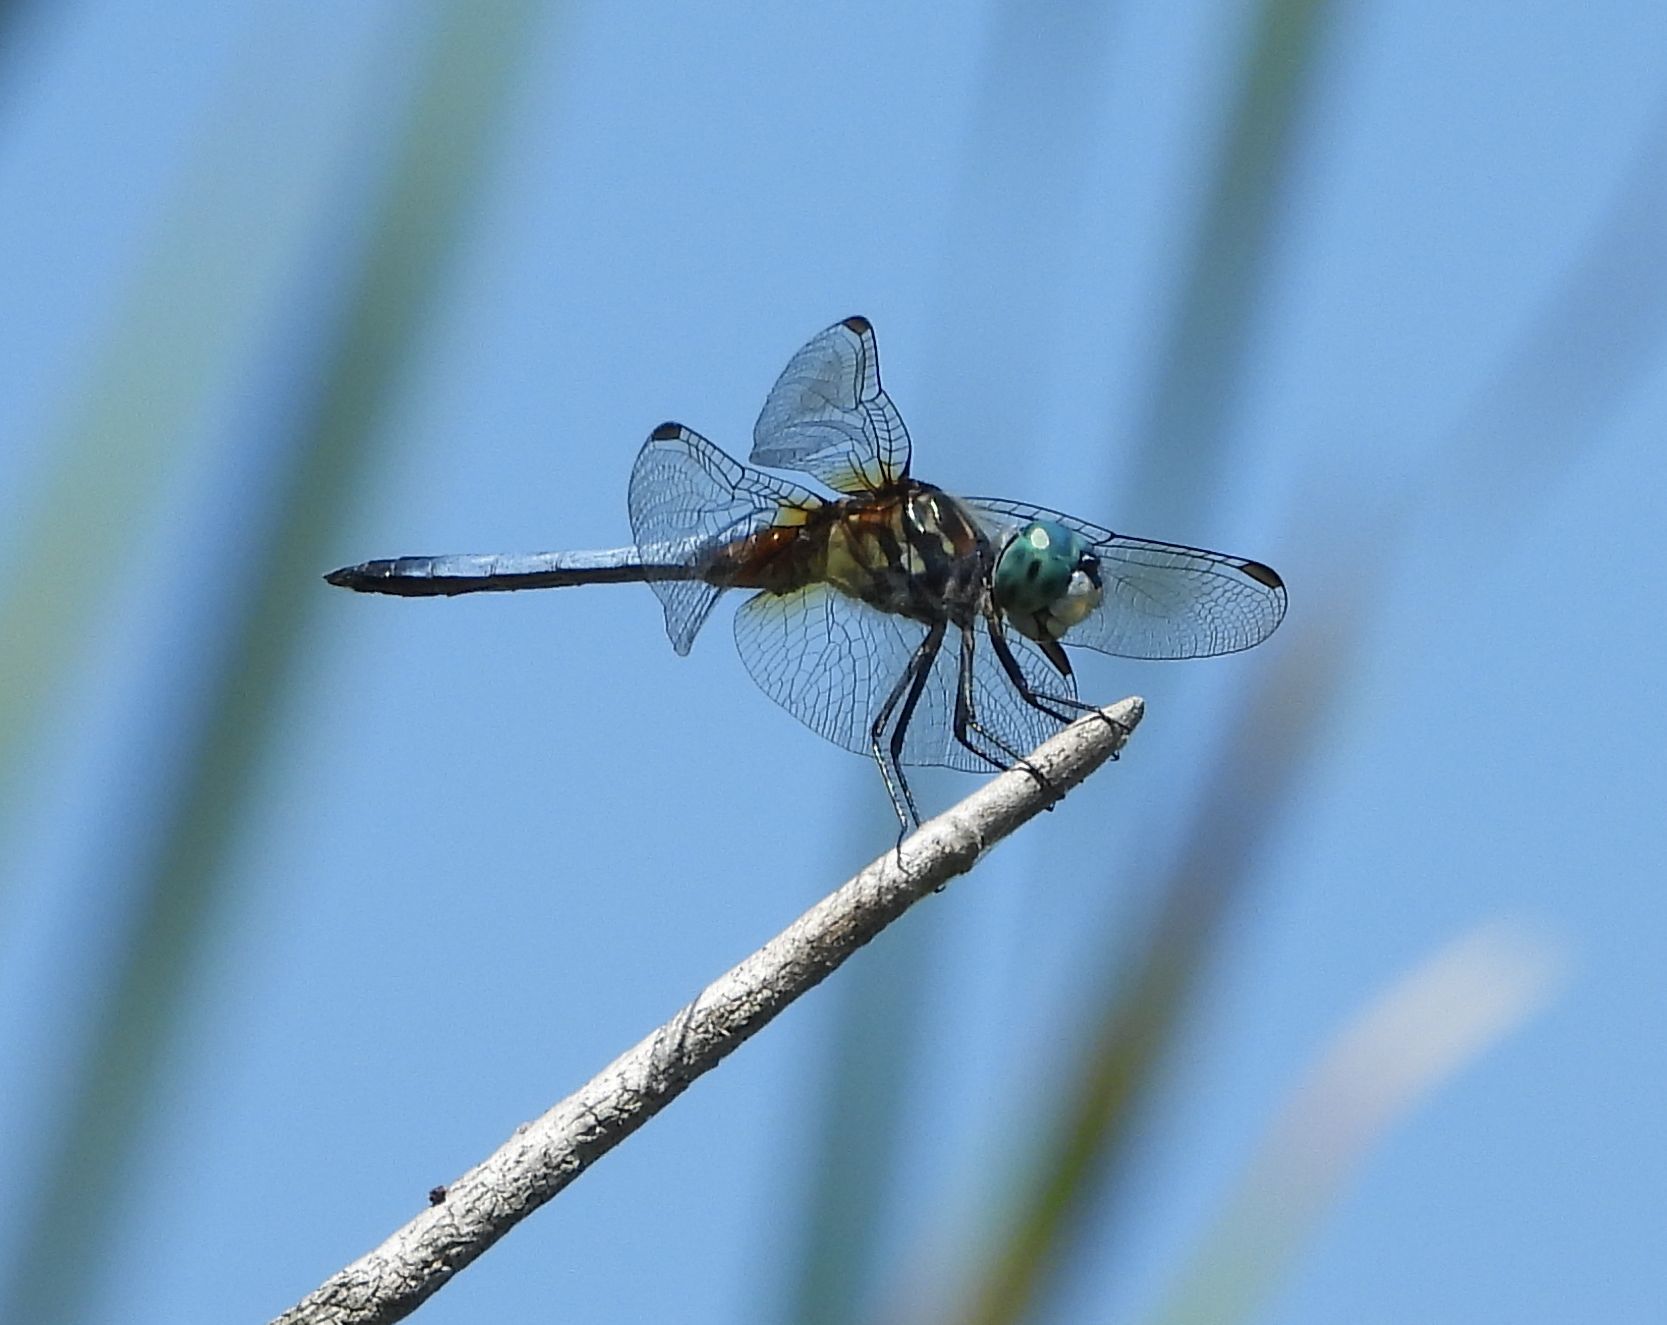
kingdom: Animalia
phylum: Arthropoda
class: Insecta
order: Odonata
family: Libellulidae
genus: Pachydiplax
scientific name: Pachydiplax longipennis
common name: Blue dasher
